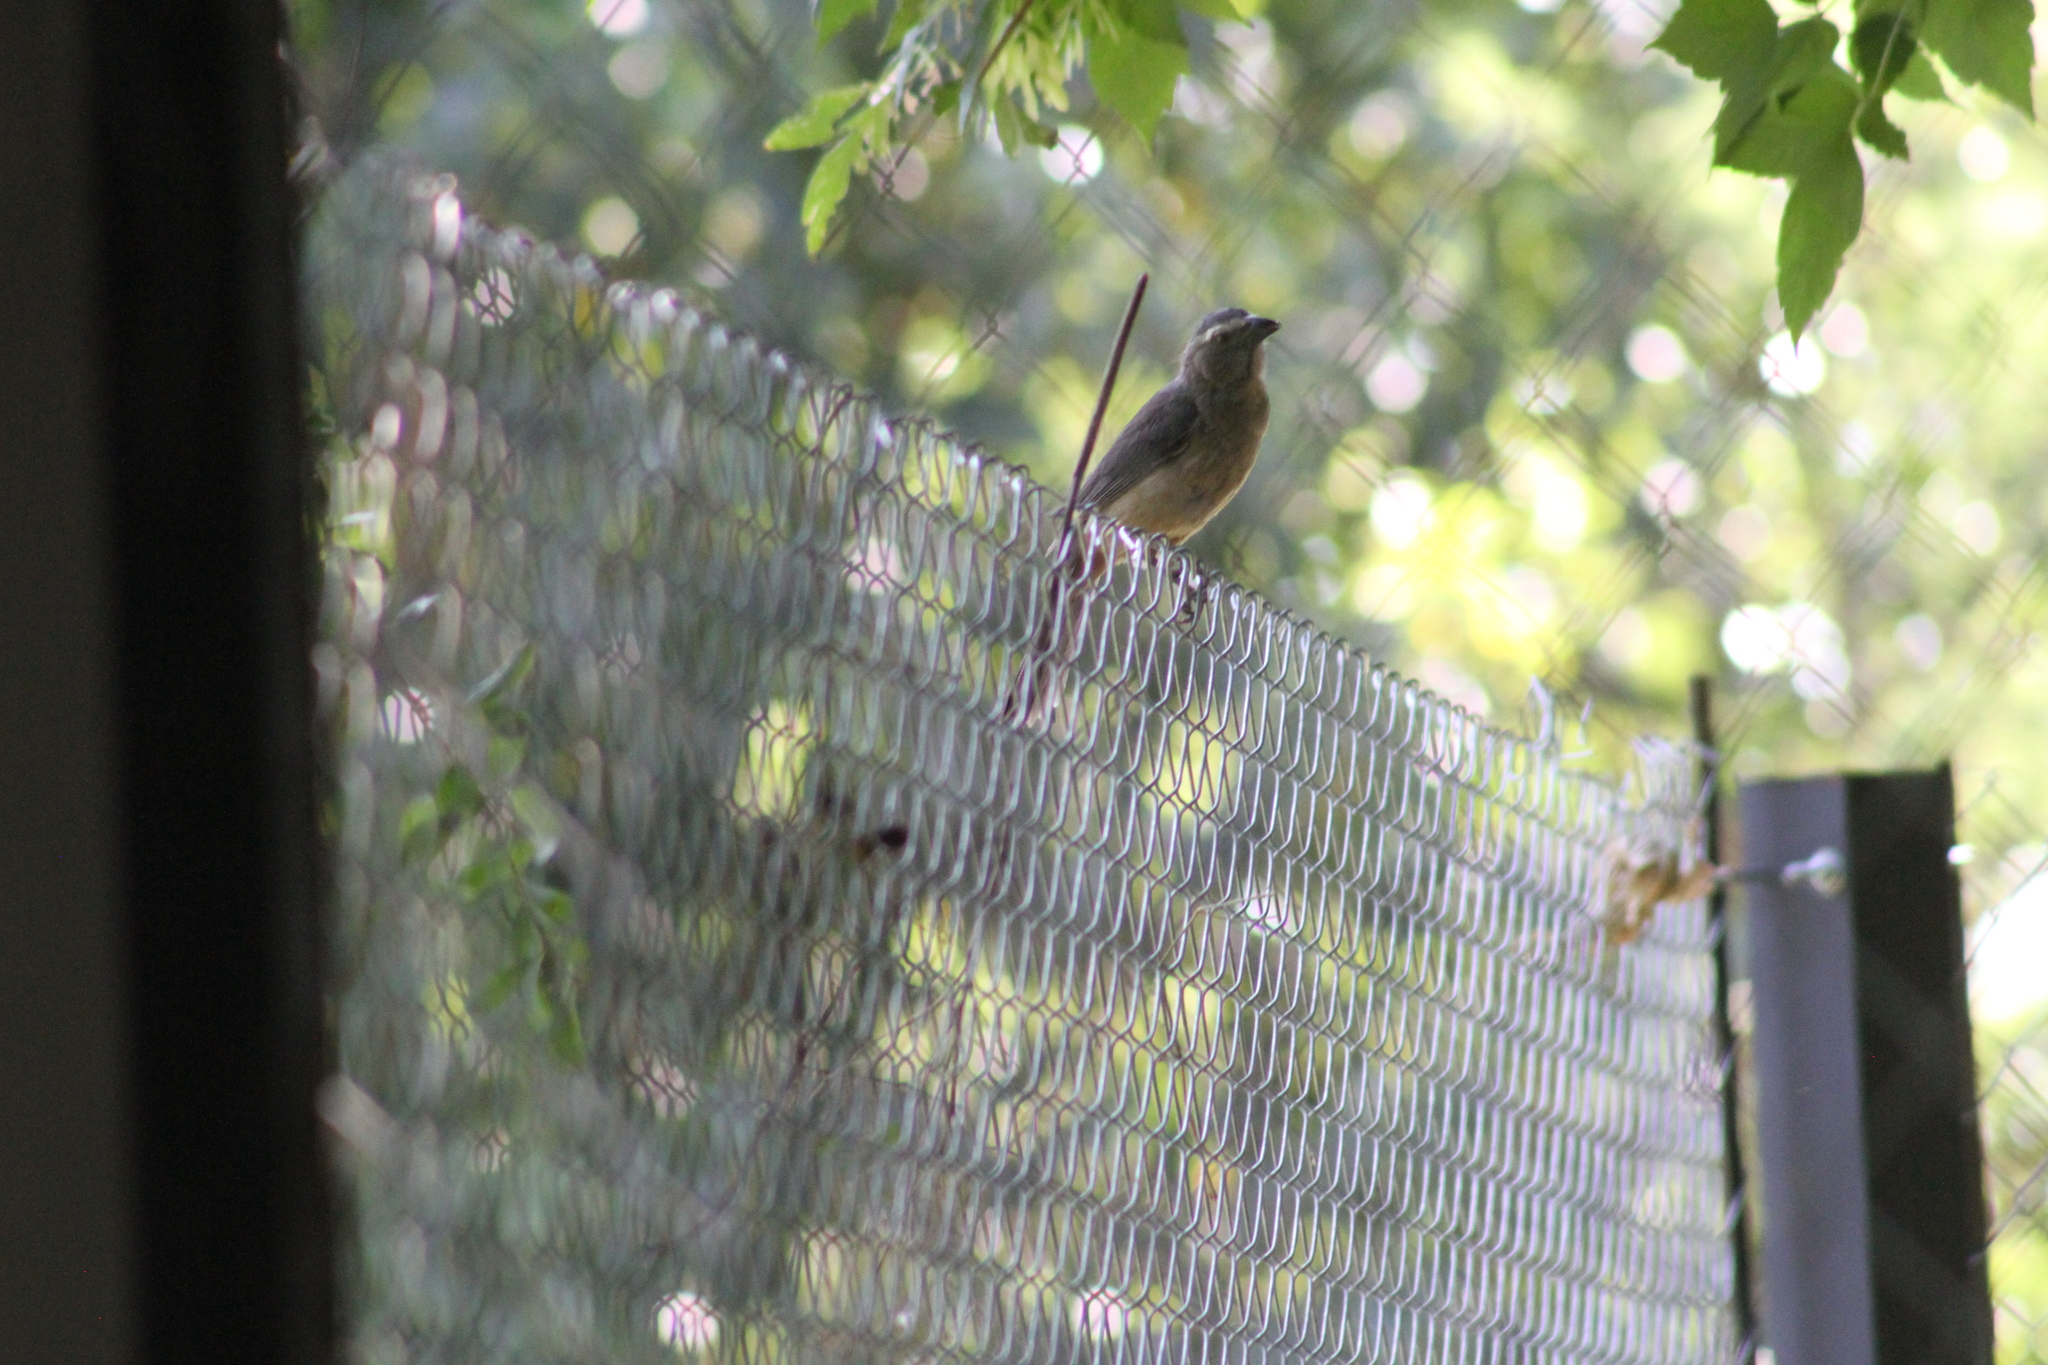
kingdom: Animalia
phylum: Chordata
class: Aves
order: Passeriformes
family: Thraupidae
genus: Saltator
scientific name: Saltator coerulescens
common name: Grayish saltator
